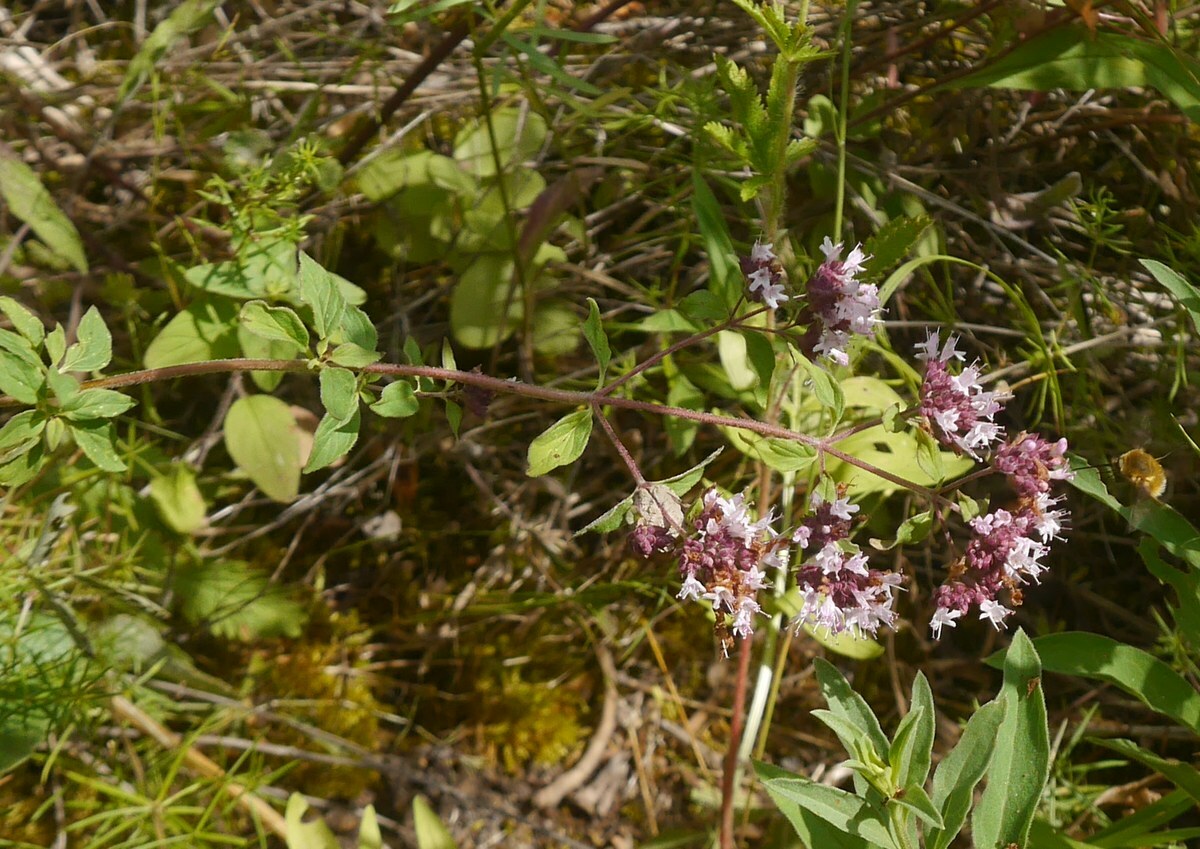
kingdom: Plantae
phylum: Tracheophyta
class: Magnoliopsida
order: Lamiales
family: Lamiaceae
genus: Origanum
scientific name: Origanum vulgare
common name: Wild marjoram
